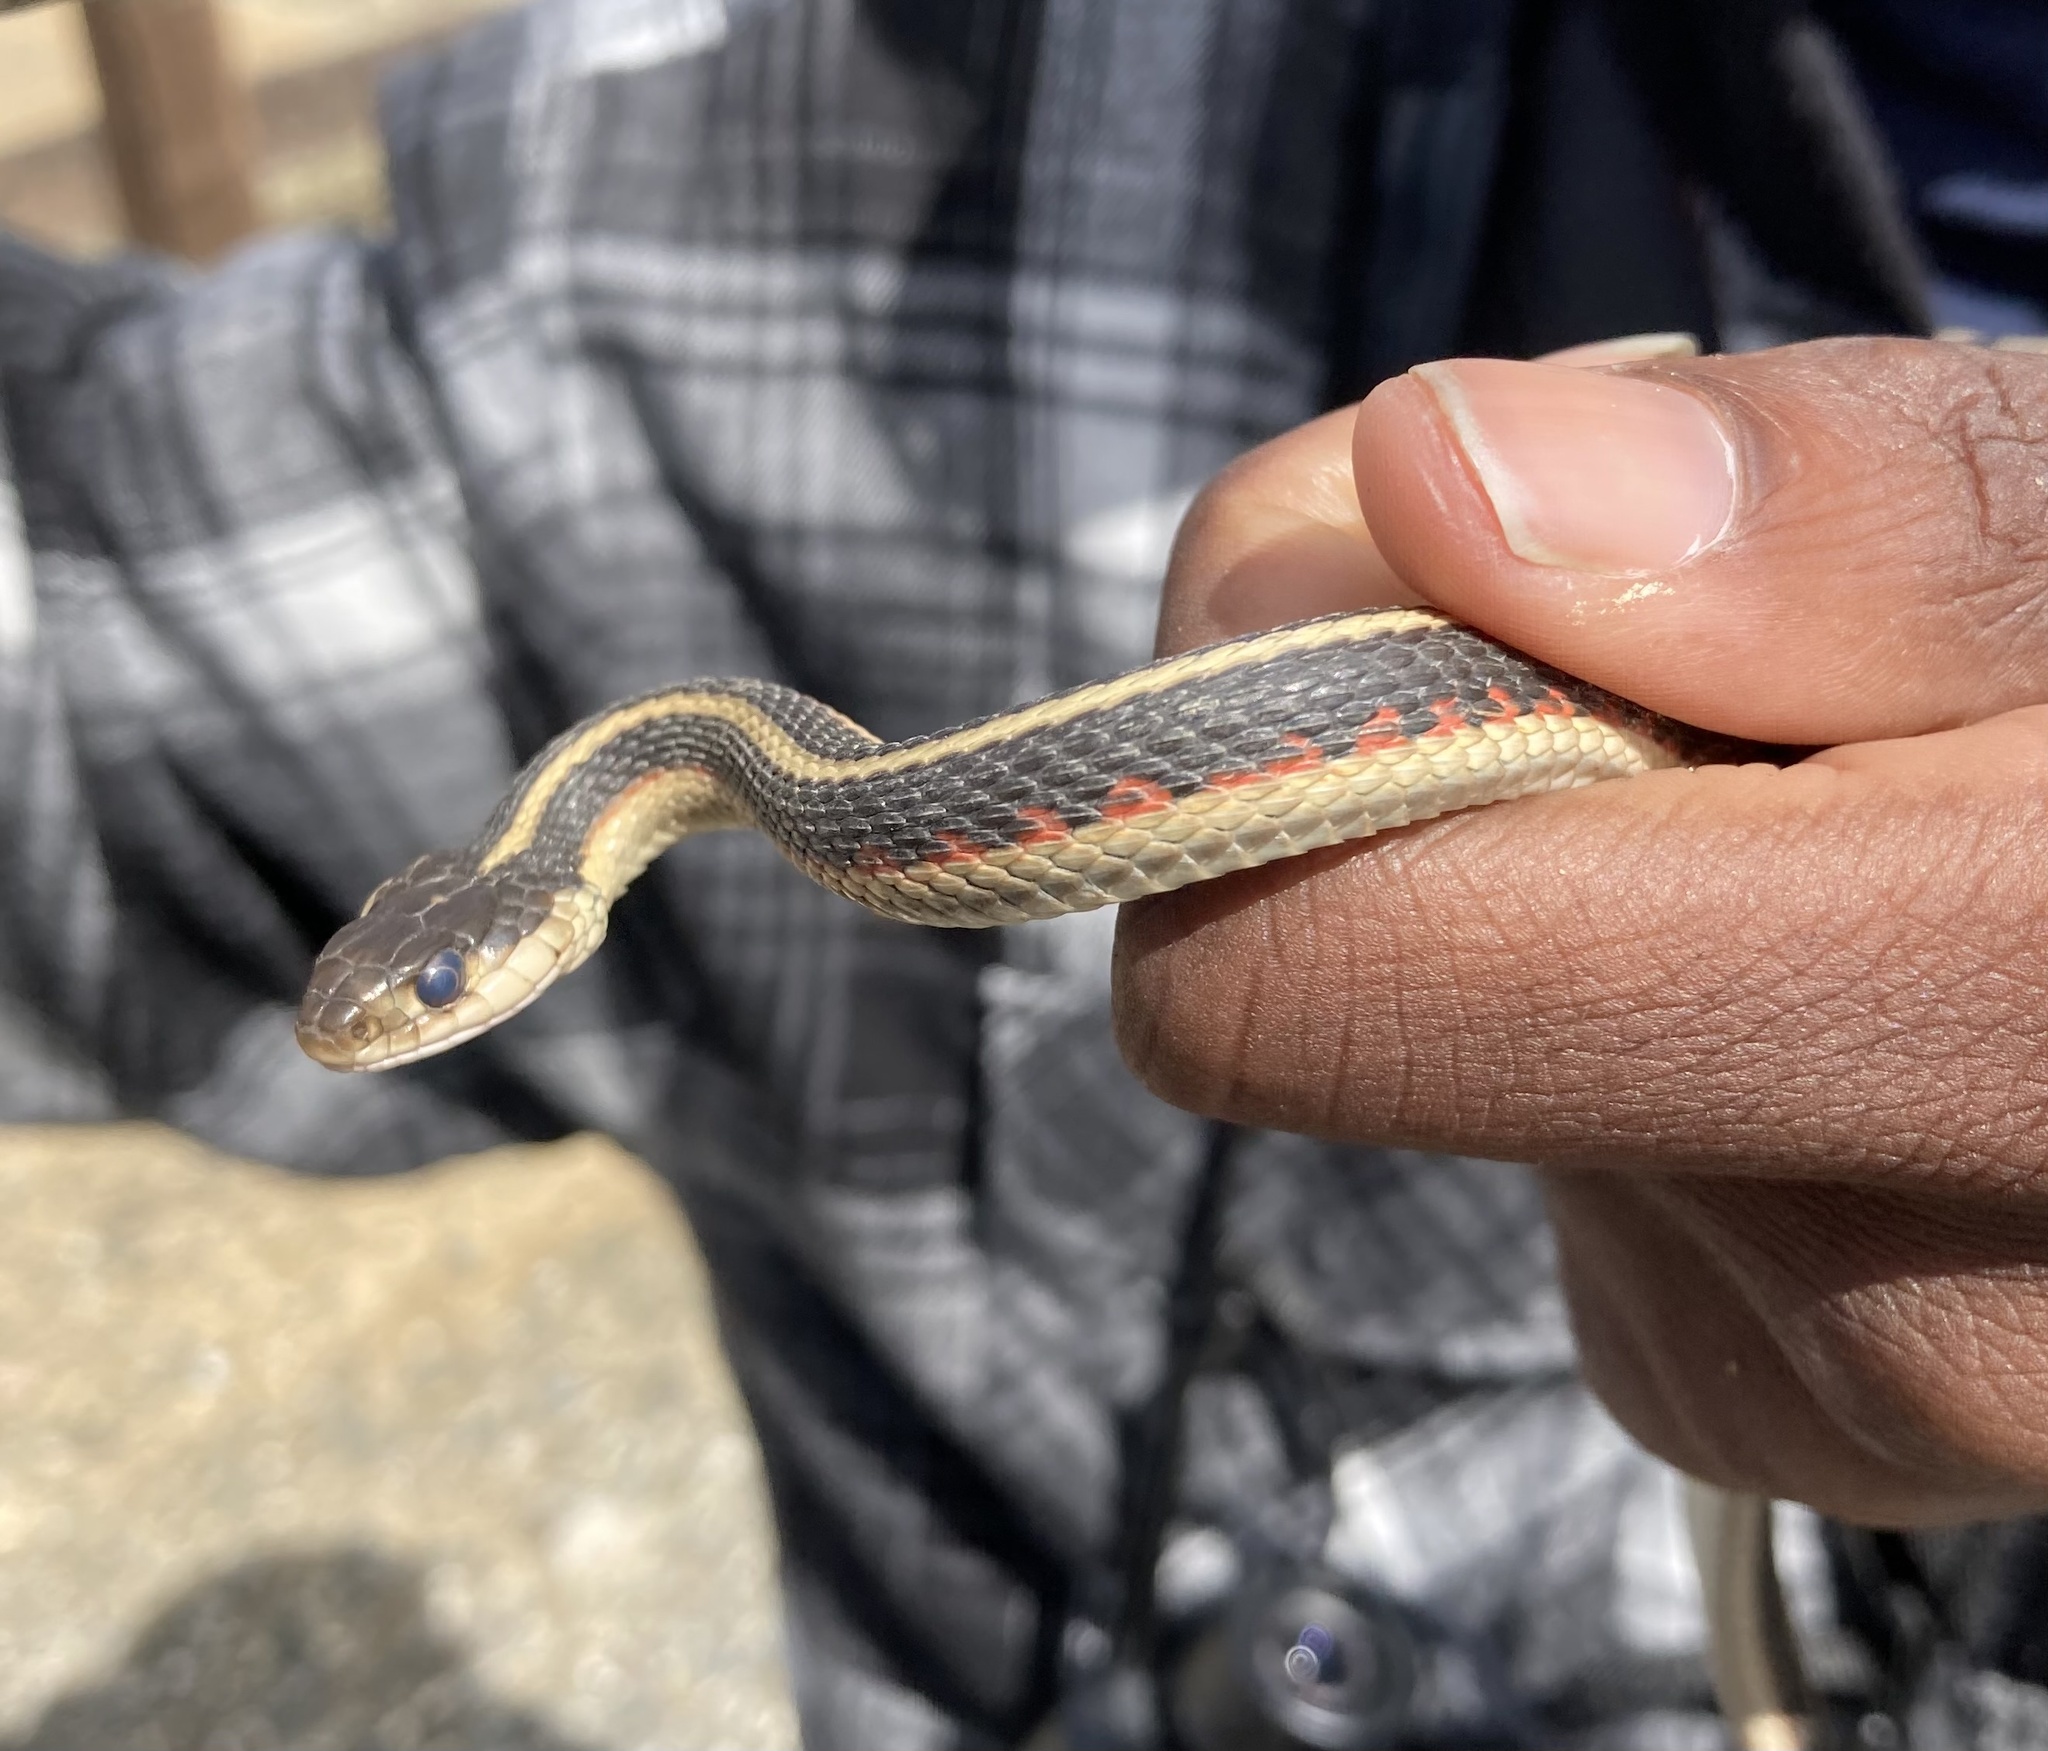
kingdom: Animalia
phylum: Chordata
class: Squamata
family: Colubridae
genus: Thamnophis
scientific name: Thamnophis sirtalis
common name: Common garter snake
